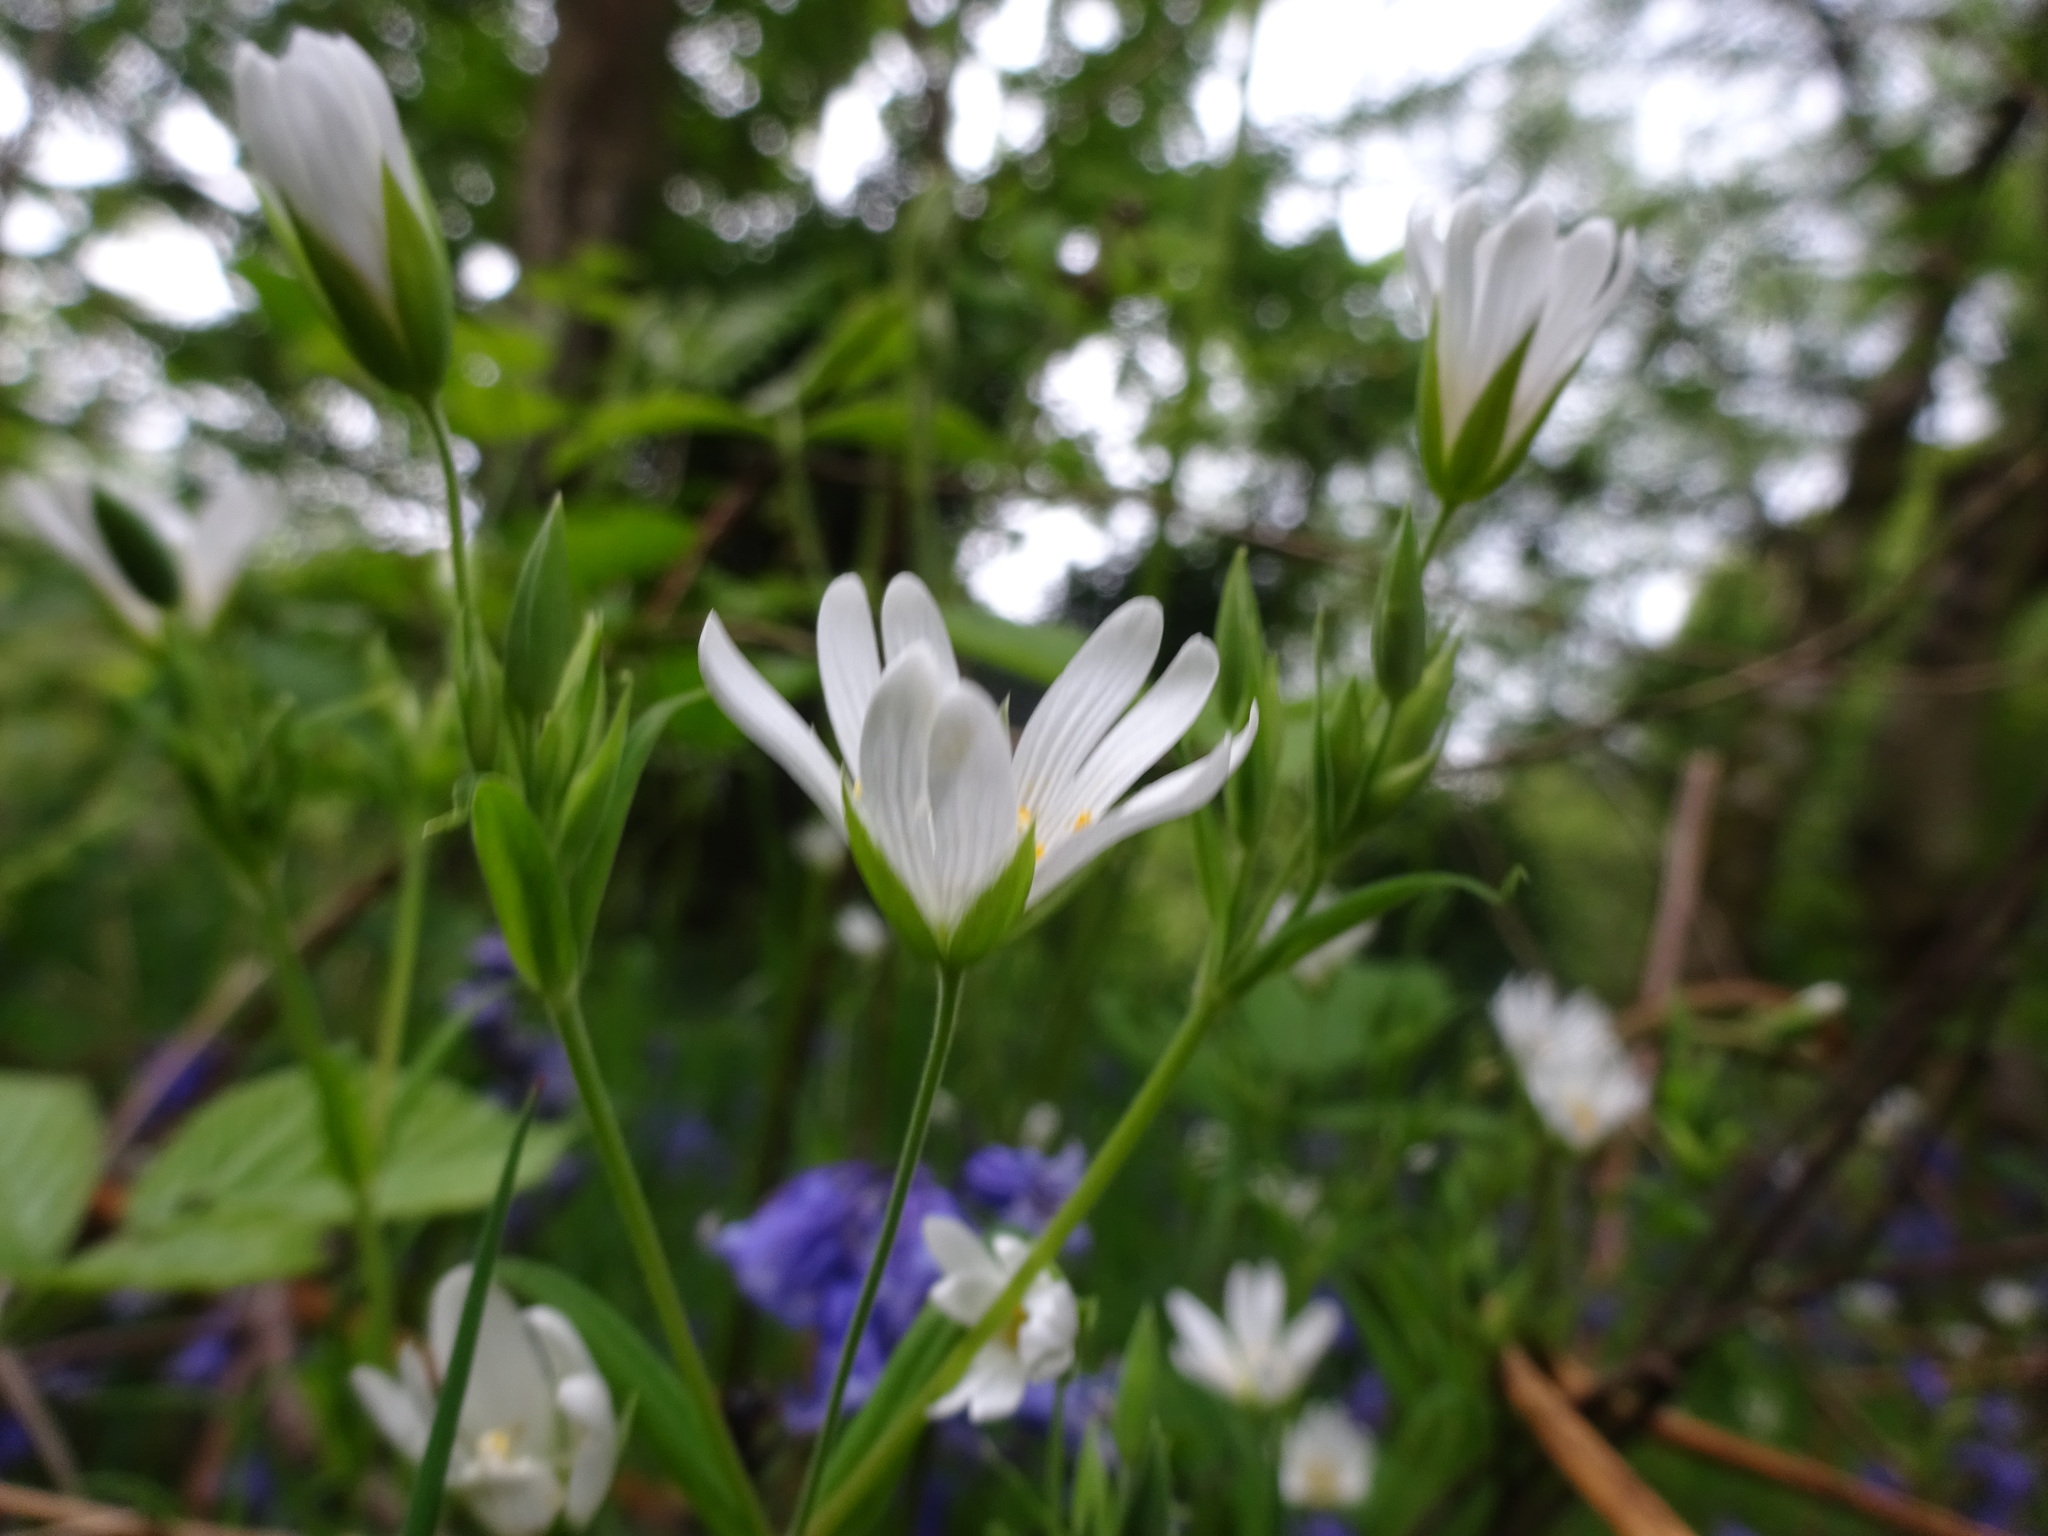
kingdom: Plantae
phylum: Tracheophyta
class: Magnoliopsida
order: Caryophyllales
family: Caryophyllaceae
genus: Rabelera
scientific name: Rabelera holostea
